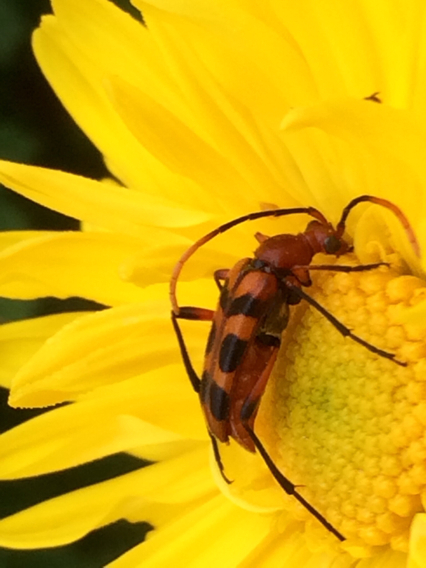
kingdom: Animalia
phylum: Arthropoda
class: Insecta
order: Coleoptera
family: Cerambycidae
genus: Strangalia
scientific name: Strangalia sexnotata
